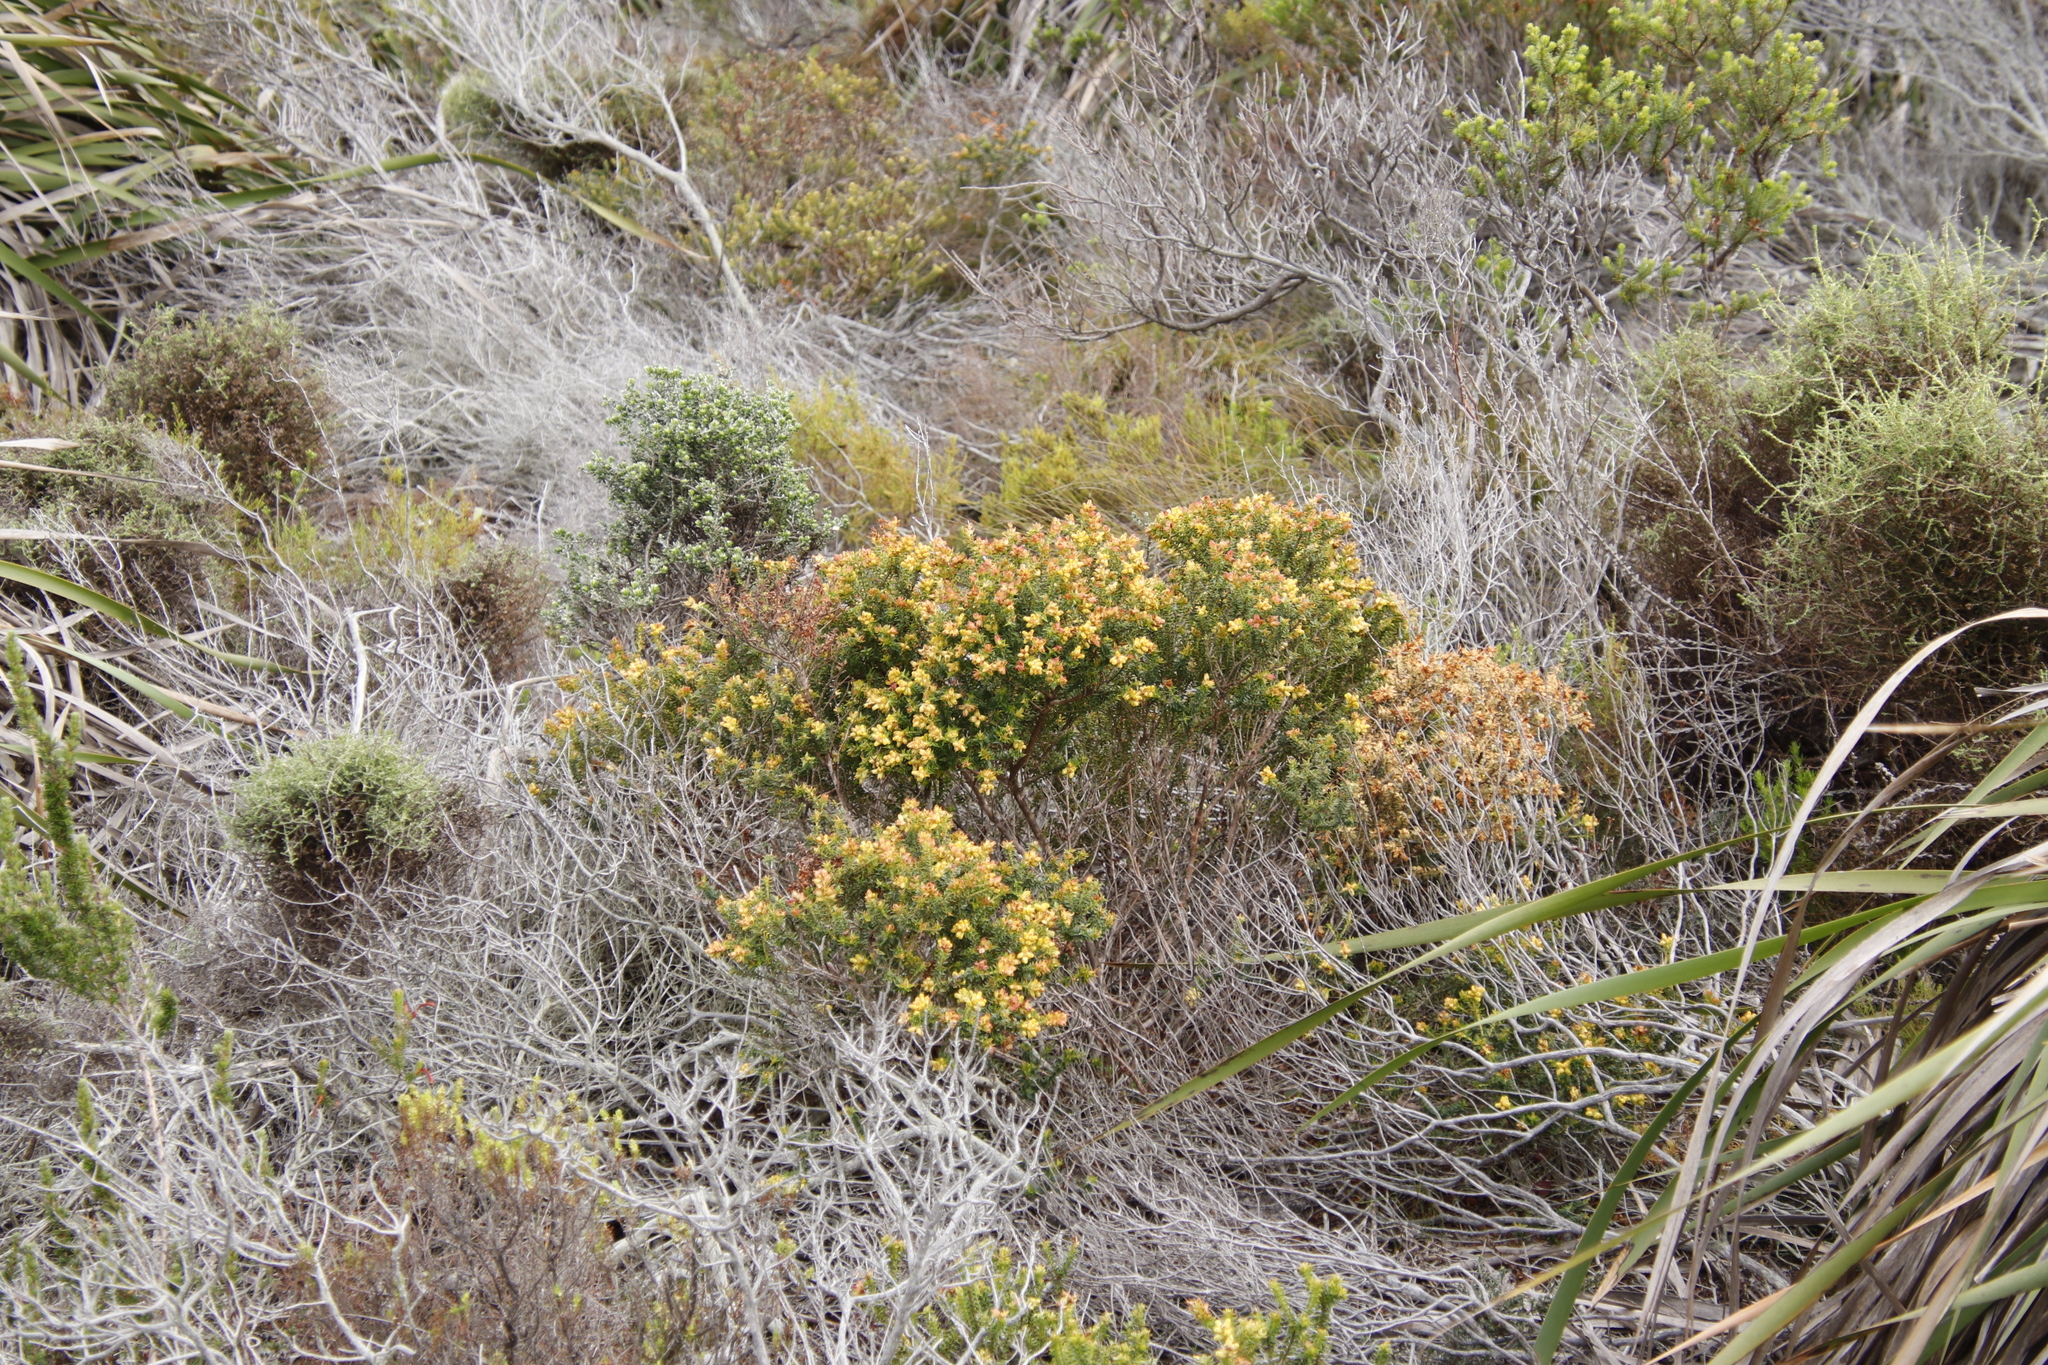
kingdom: Plantae
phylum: Tracheophyta
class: Magnoliopsida
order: Myrtales
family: Penaeaceae
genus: Penaea
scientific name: Penaea mucronata
